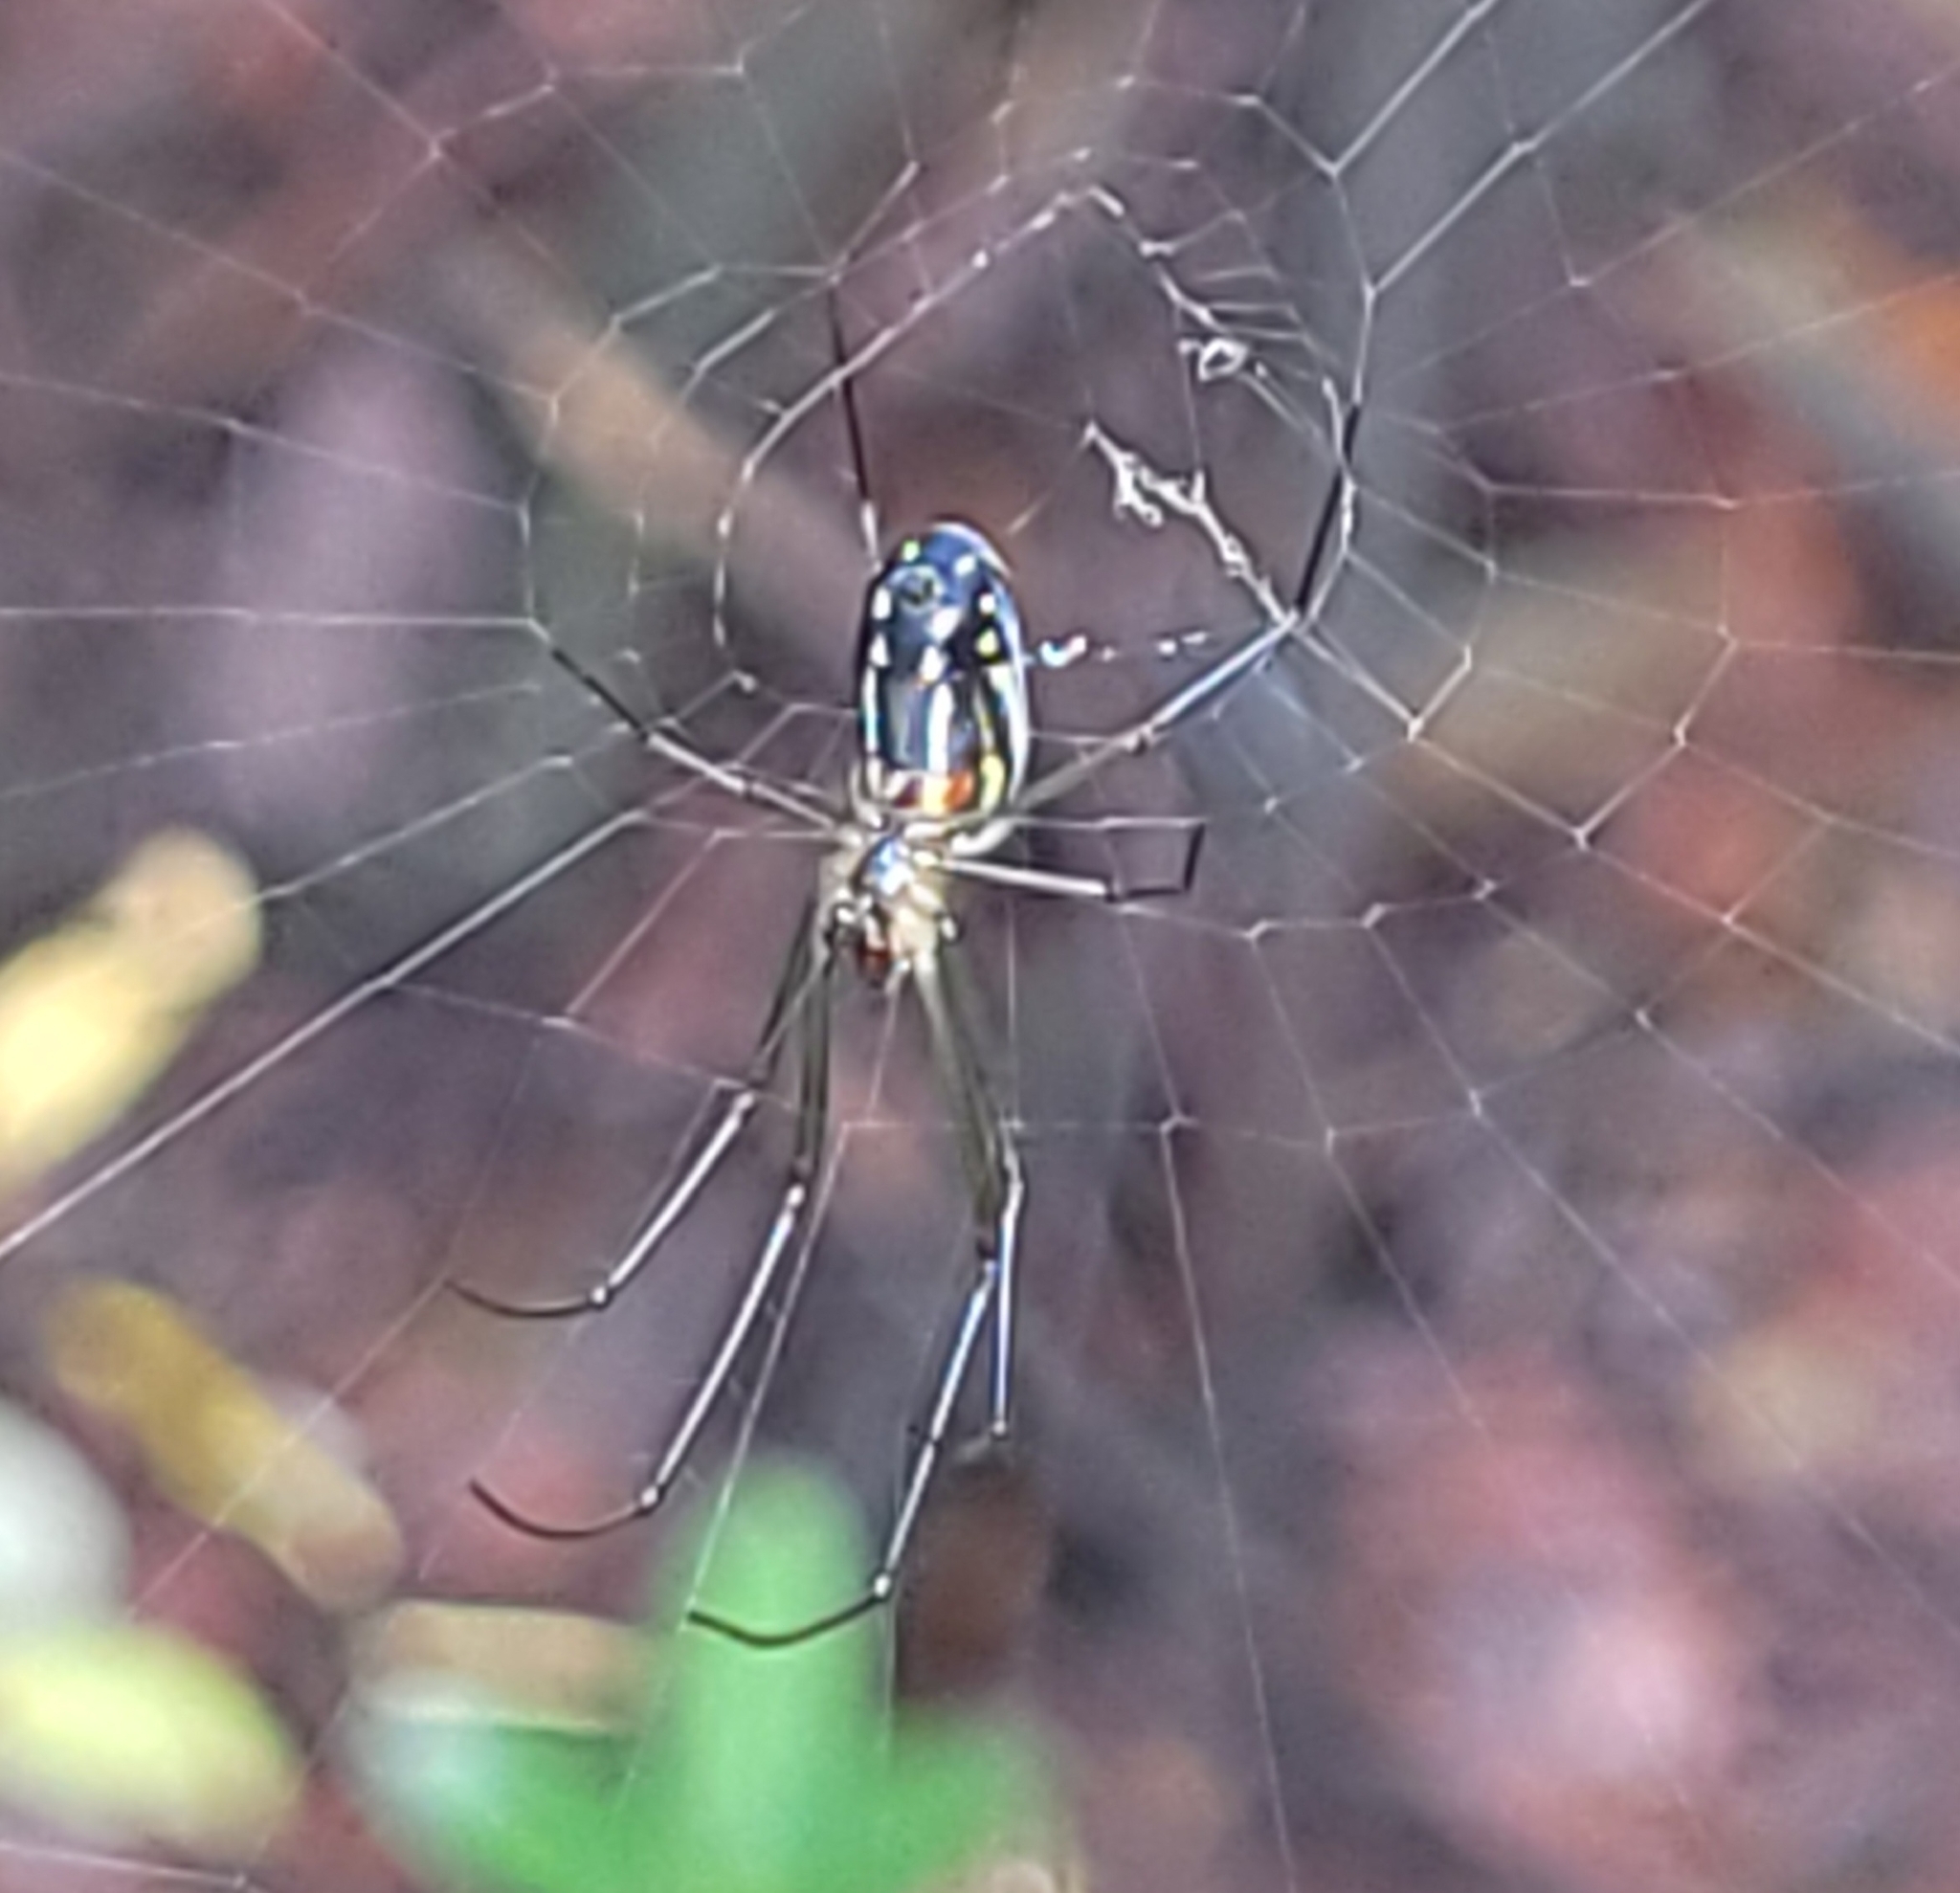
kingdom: Animalia
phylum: Arthropoda
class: Arachnida
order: Araneae
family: Tetragnathidae
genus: Leucauge
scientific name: Leucauge argyra
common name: Longjawed orb weavers
